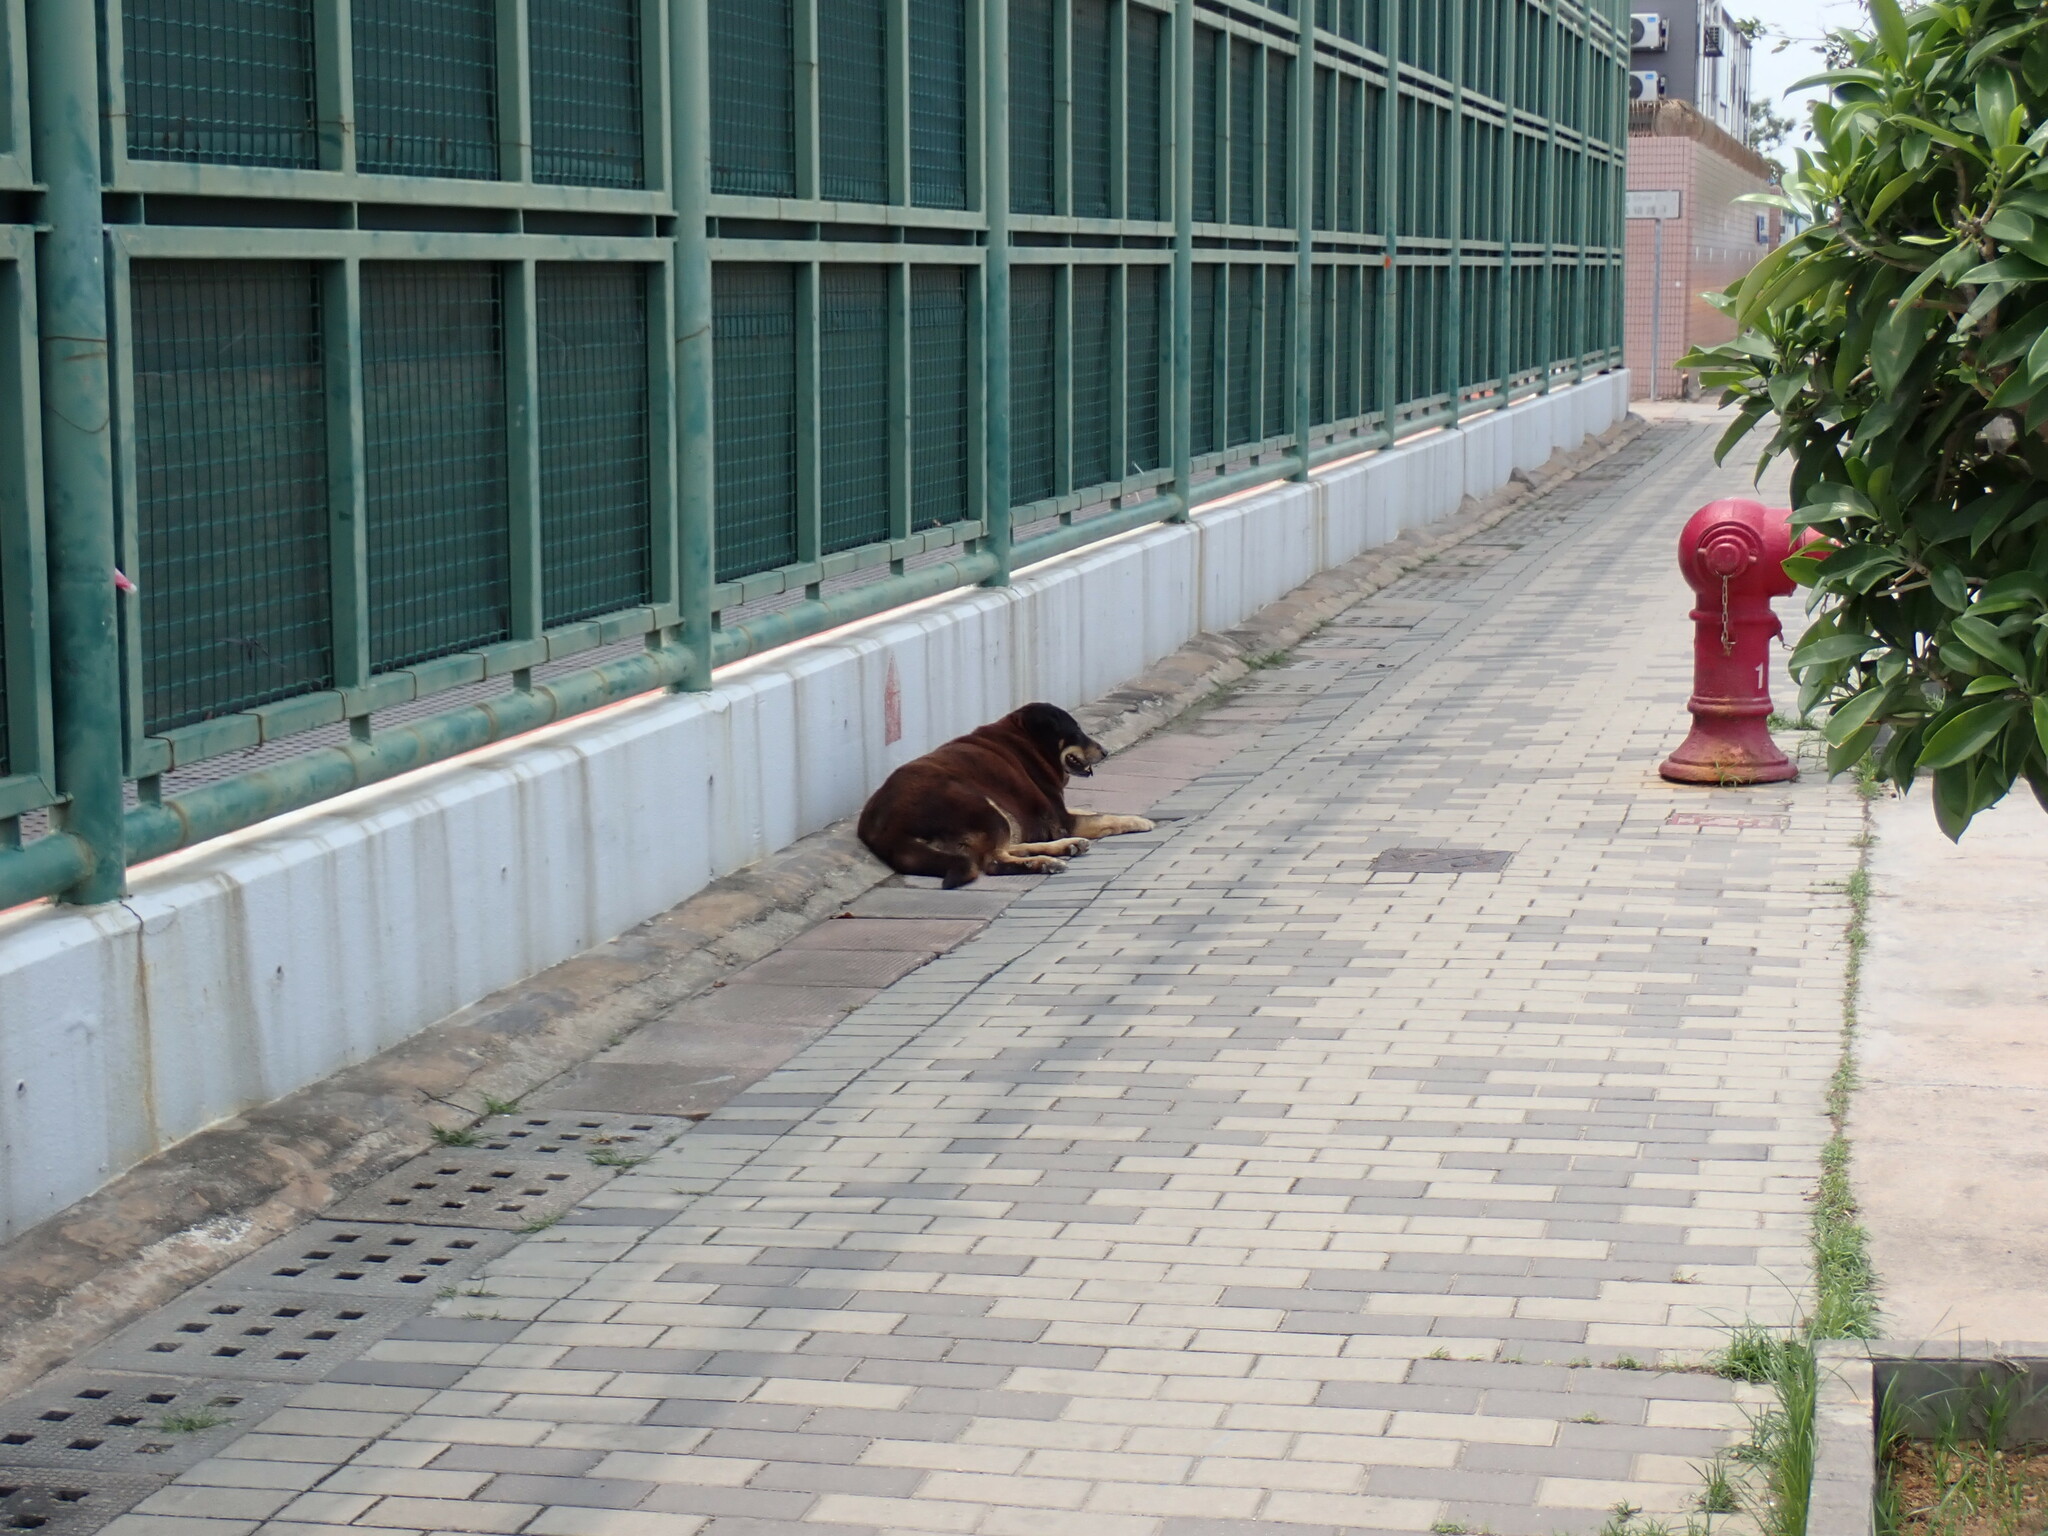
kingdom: Animalia
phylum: Chordata
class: Mammalia
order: Carnivora
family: Canidae
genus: Canis
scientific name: Canis lupus
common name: Gray wolf
